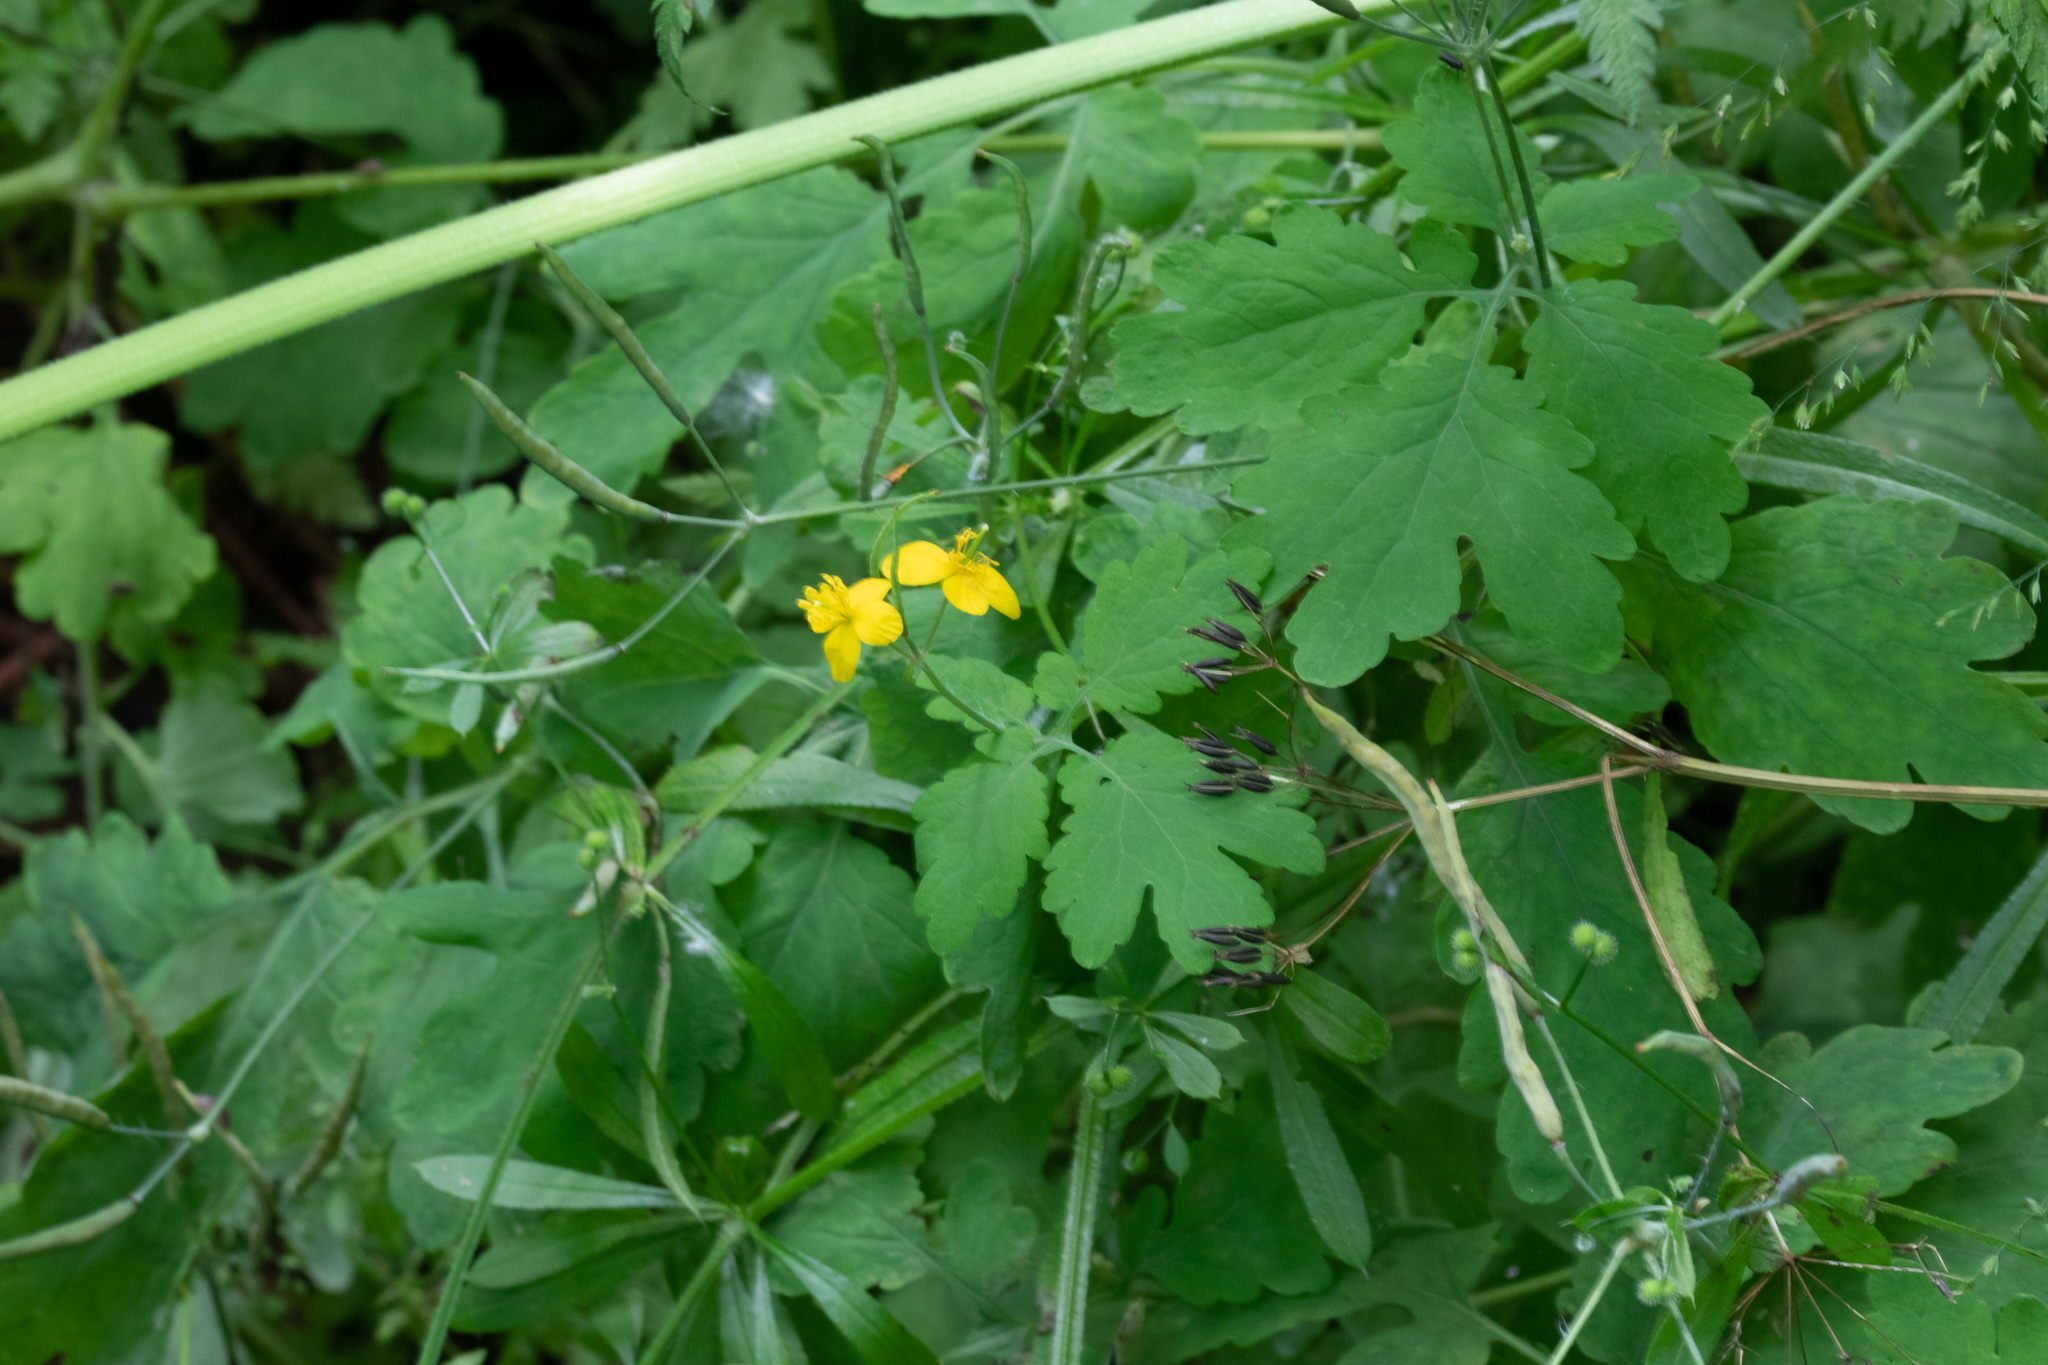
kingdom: Plantae
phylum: Tracheophyta
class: Magnoliopsida
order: Ranunculales
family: Papaveraceae
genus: Chelidonium
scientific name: Chelidonium majus
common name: Greater celandine
